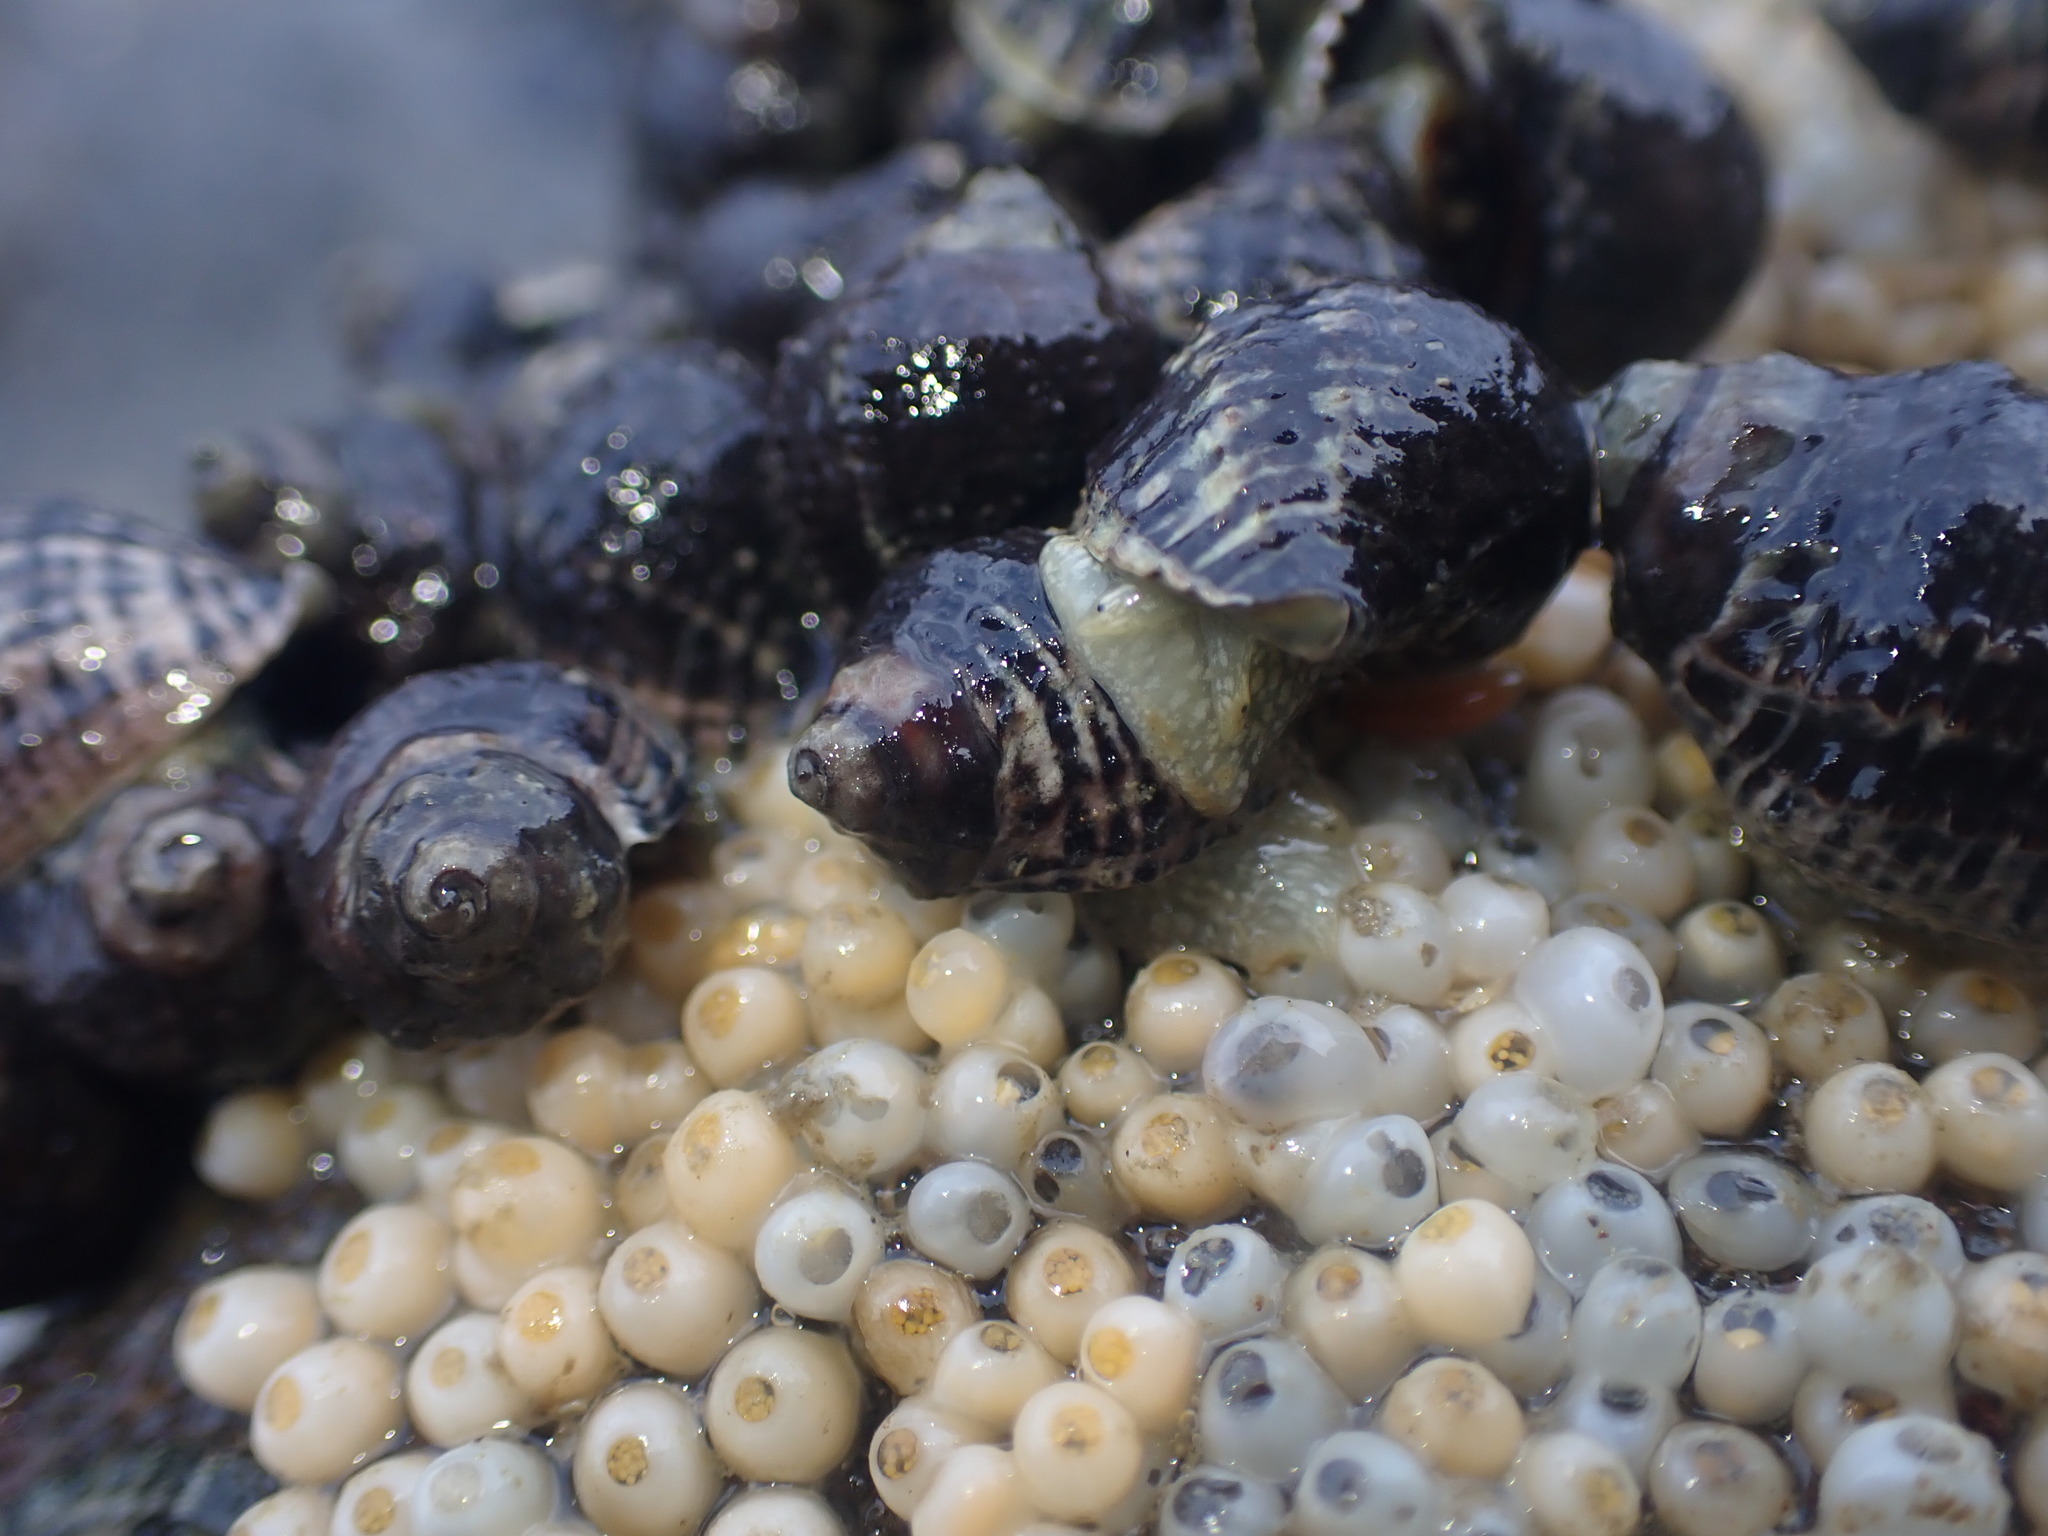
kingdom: Animalia
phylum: Mollusca
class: Gastropoda
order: Neogastropoda
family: Muricidae
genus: Haustrum
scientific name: Haustrum albomarginatum
